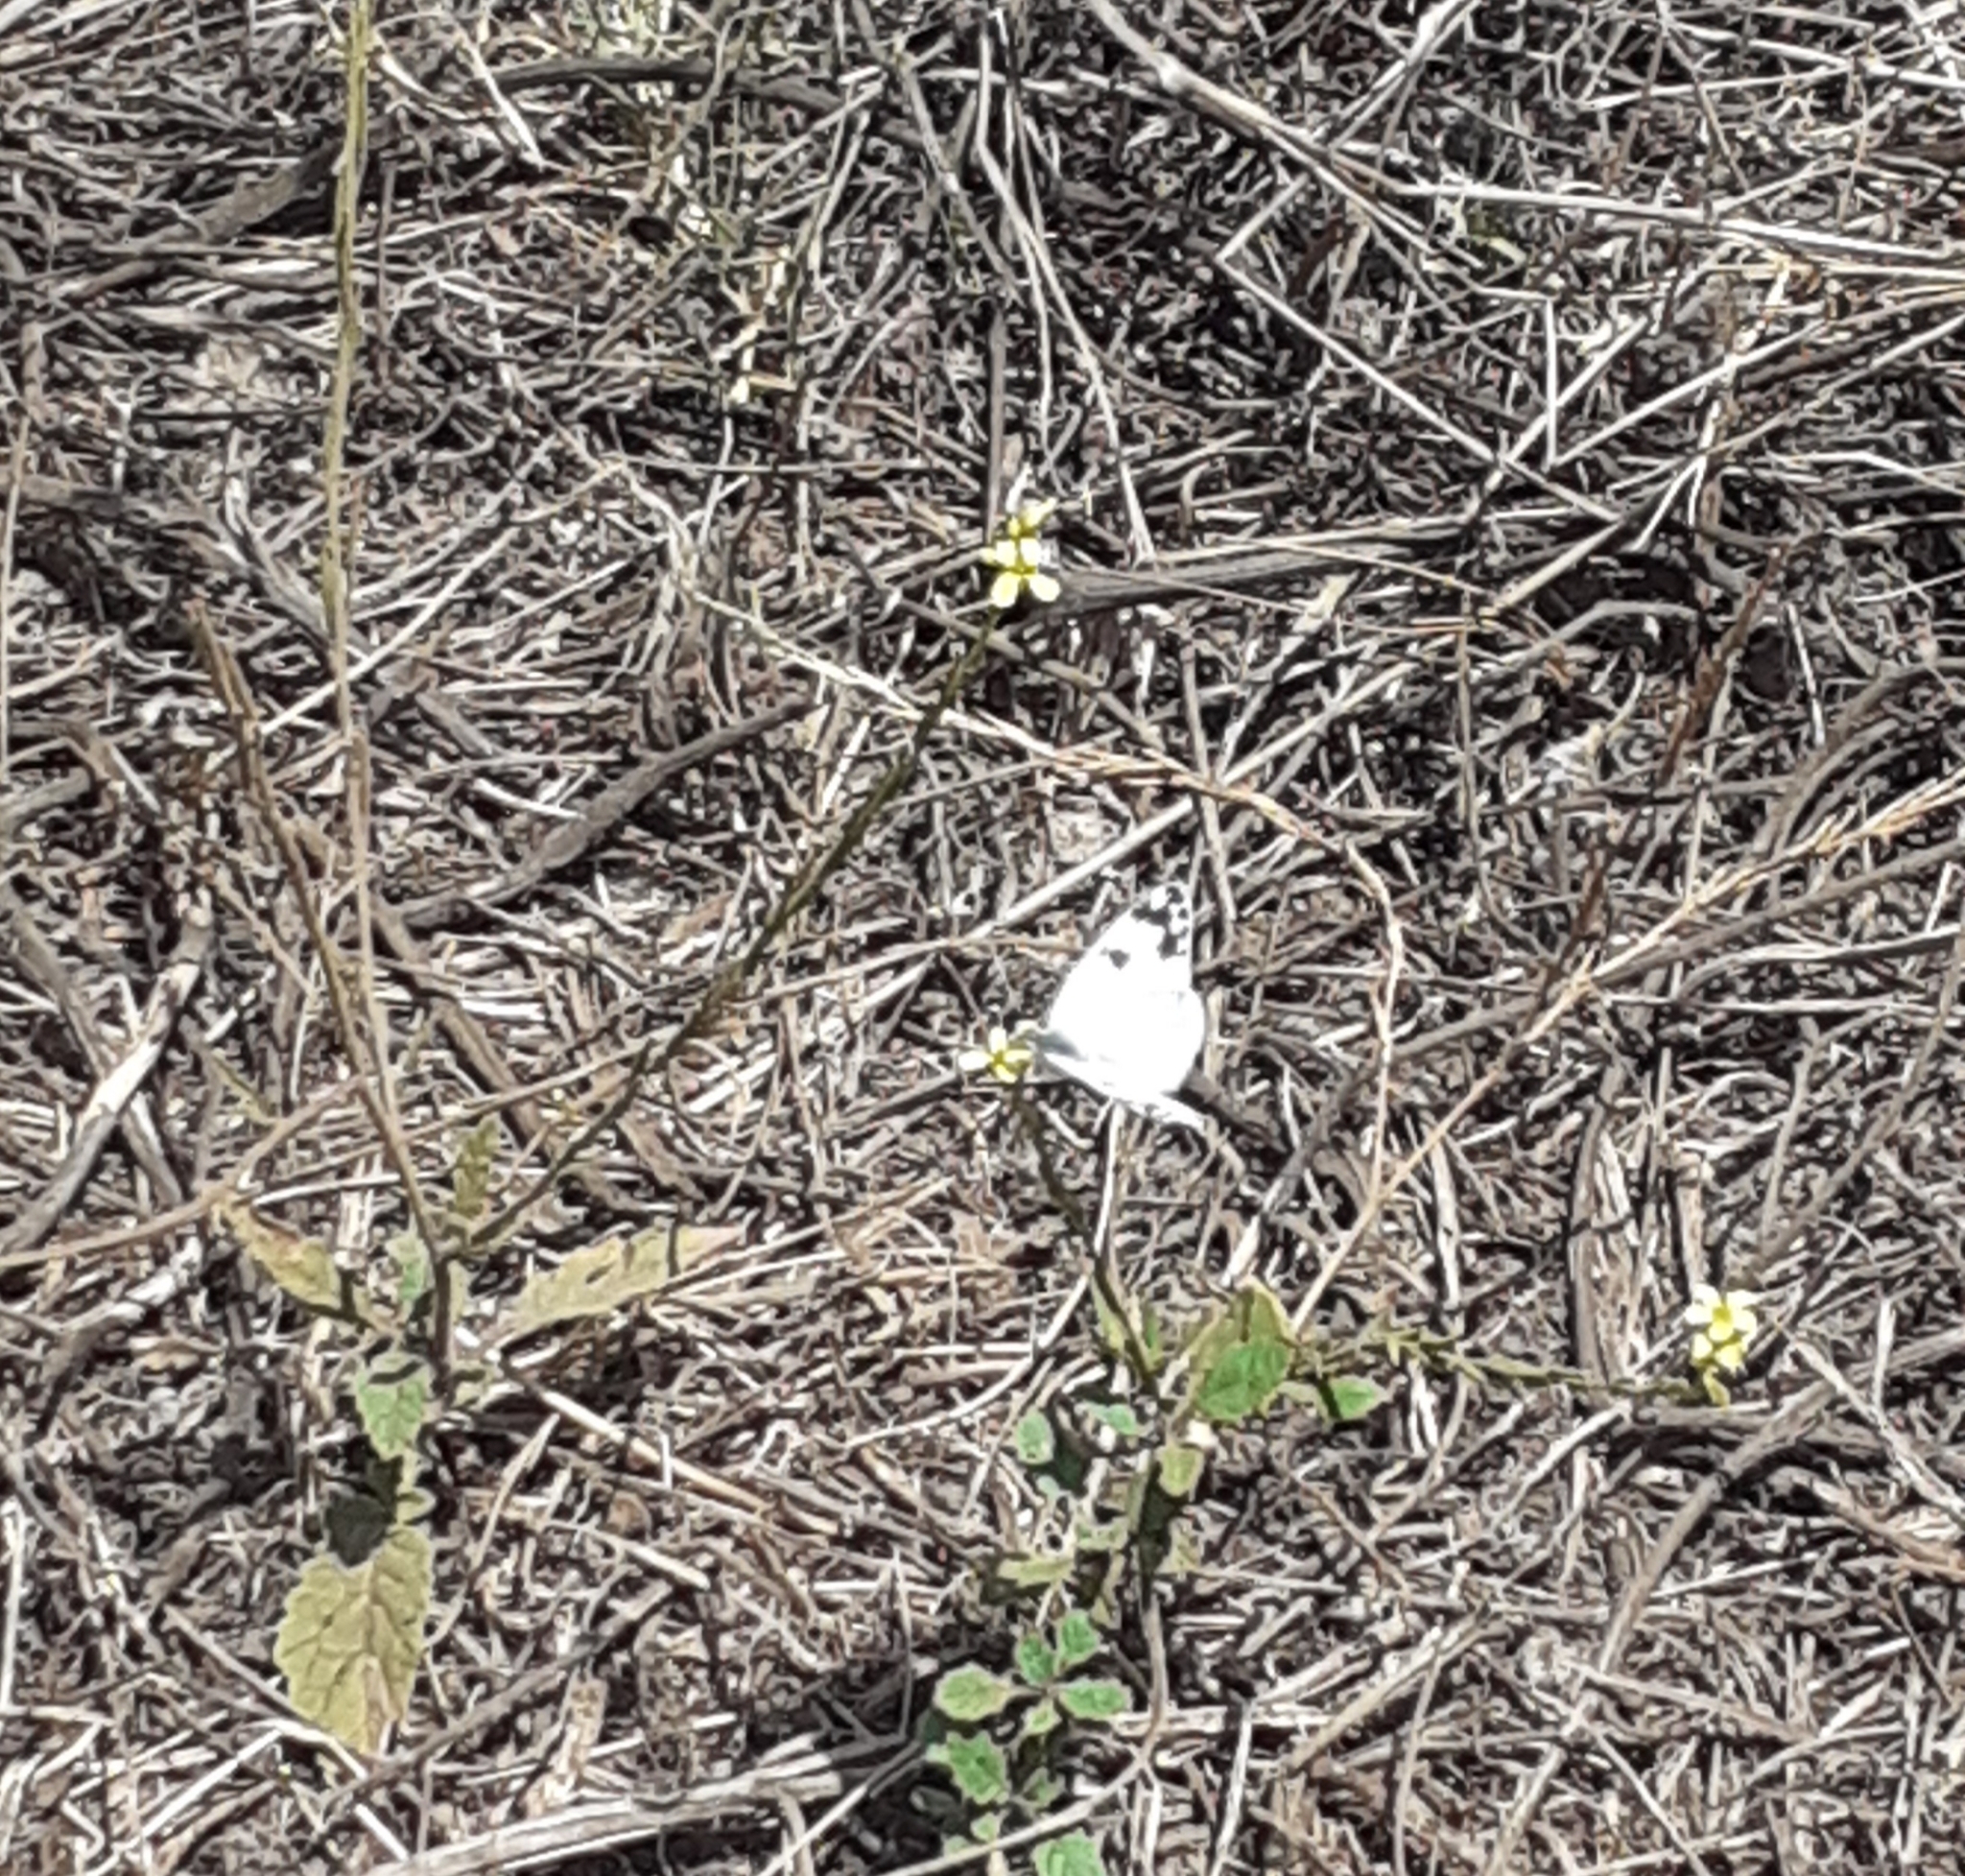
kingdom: Animalia
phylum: Arthropoda
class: Insecta
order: Lepidoptera
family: Pieridae
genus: Pontia
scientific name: Pontia daplidice
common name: Bath white
